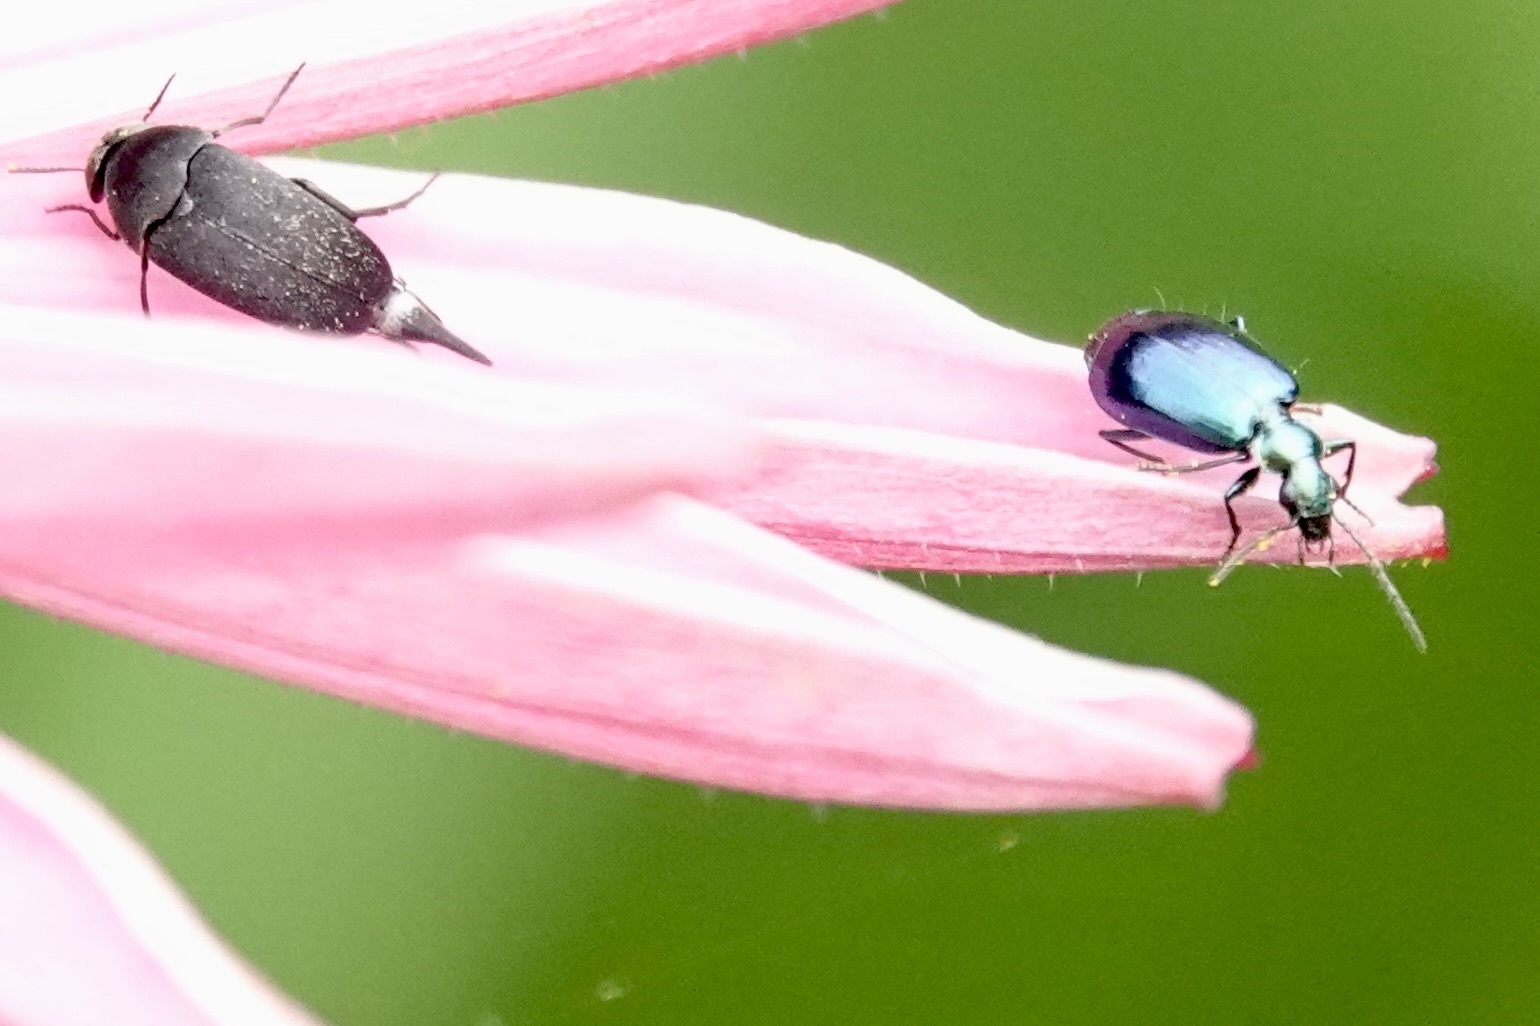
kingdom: Animalia
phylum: Arthropoda
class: Insecta
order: Coleoptera
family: Carabidae
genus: Lebia
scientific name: Lebia viridis
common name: Flower lebia beetle
